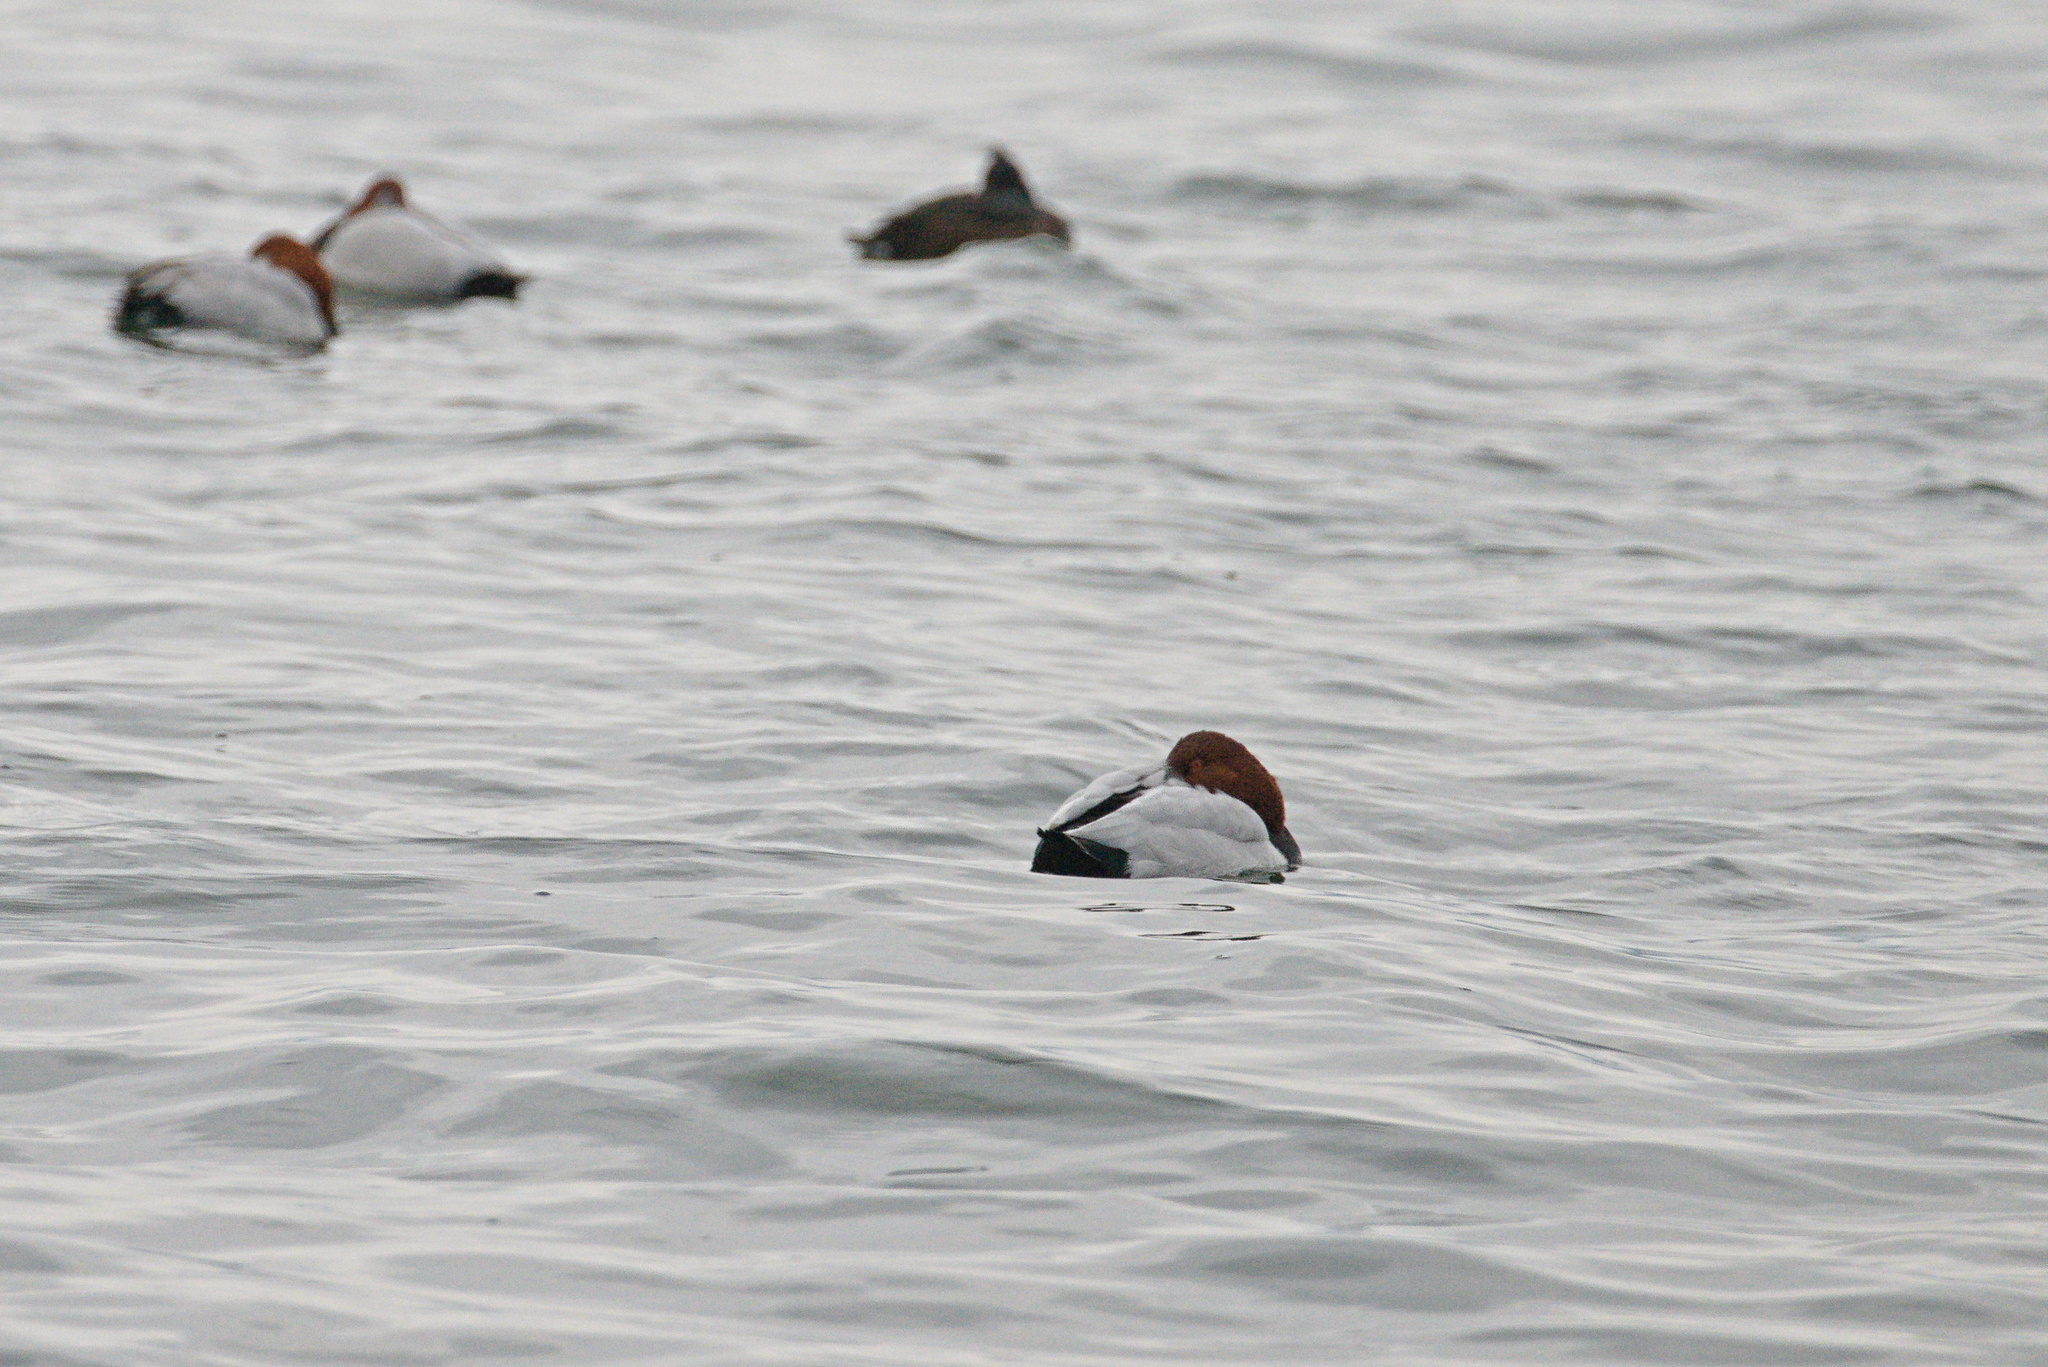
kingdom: Animalia
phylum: Chordata
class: Aves
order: Anseriformes
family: Anatidae
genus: Aythya
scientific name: Aythya ferina
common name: Common pochard
